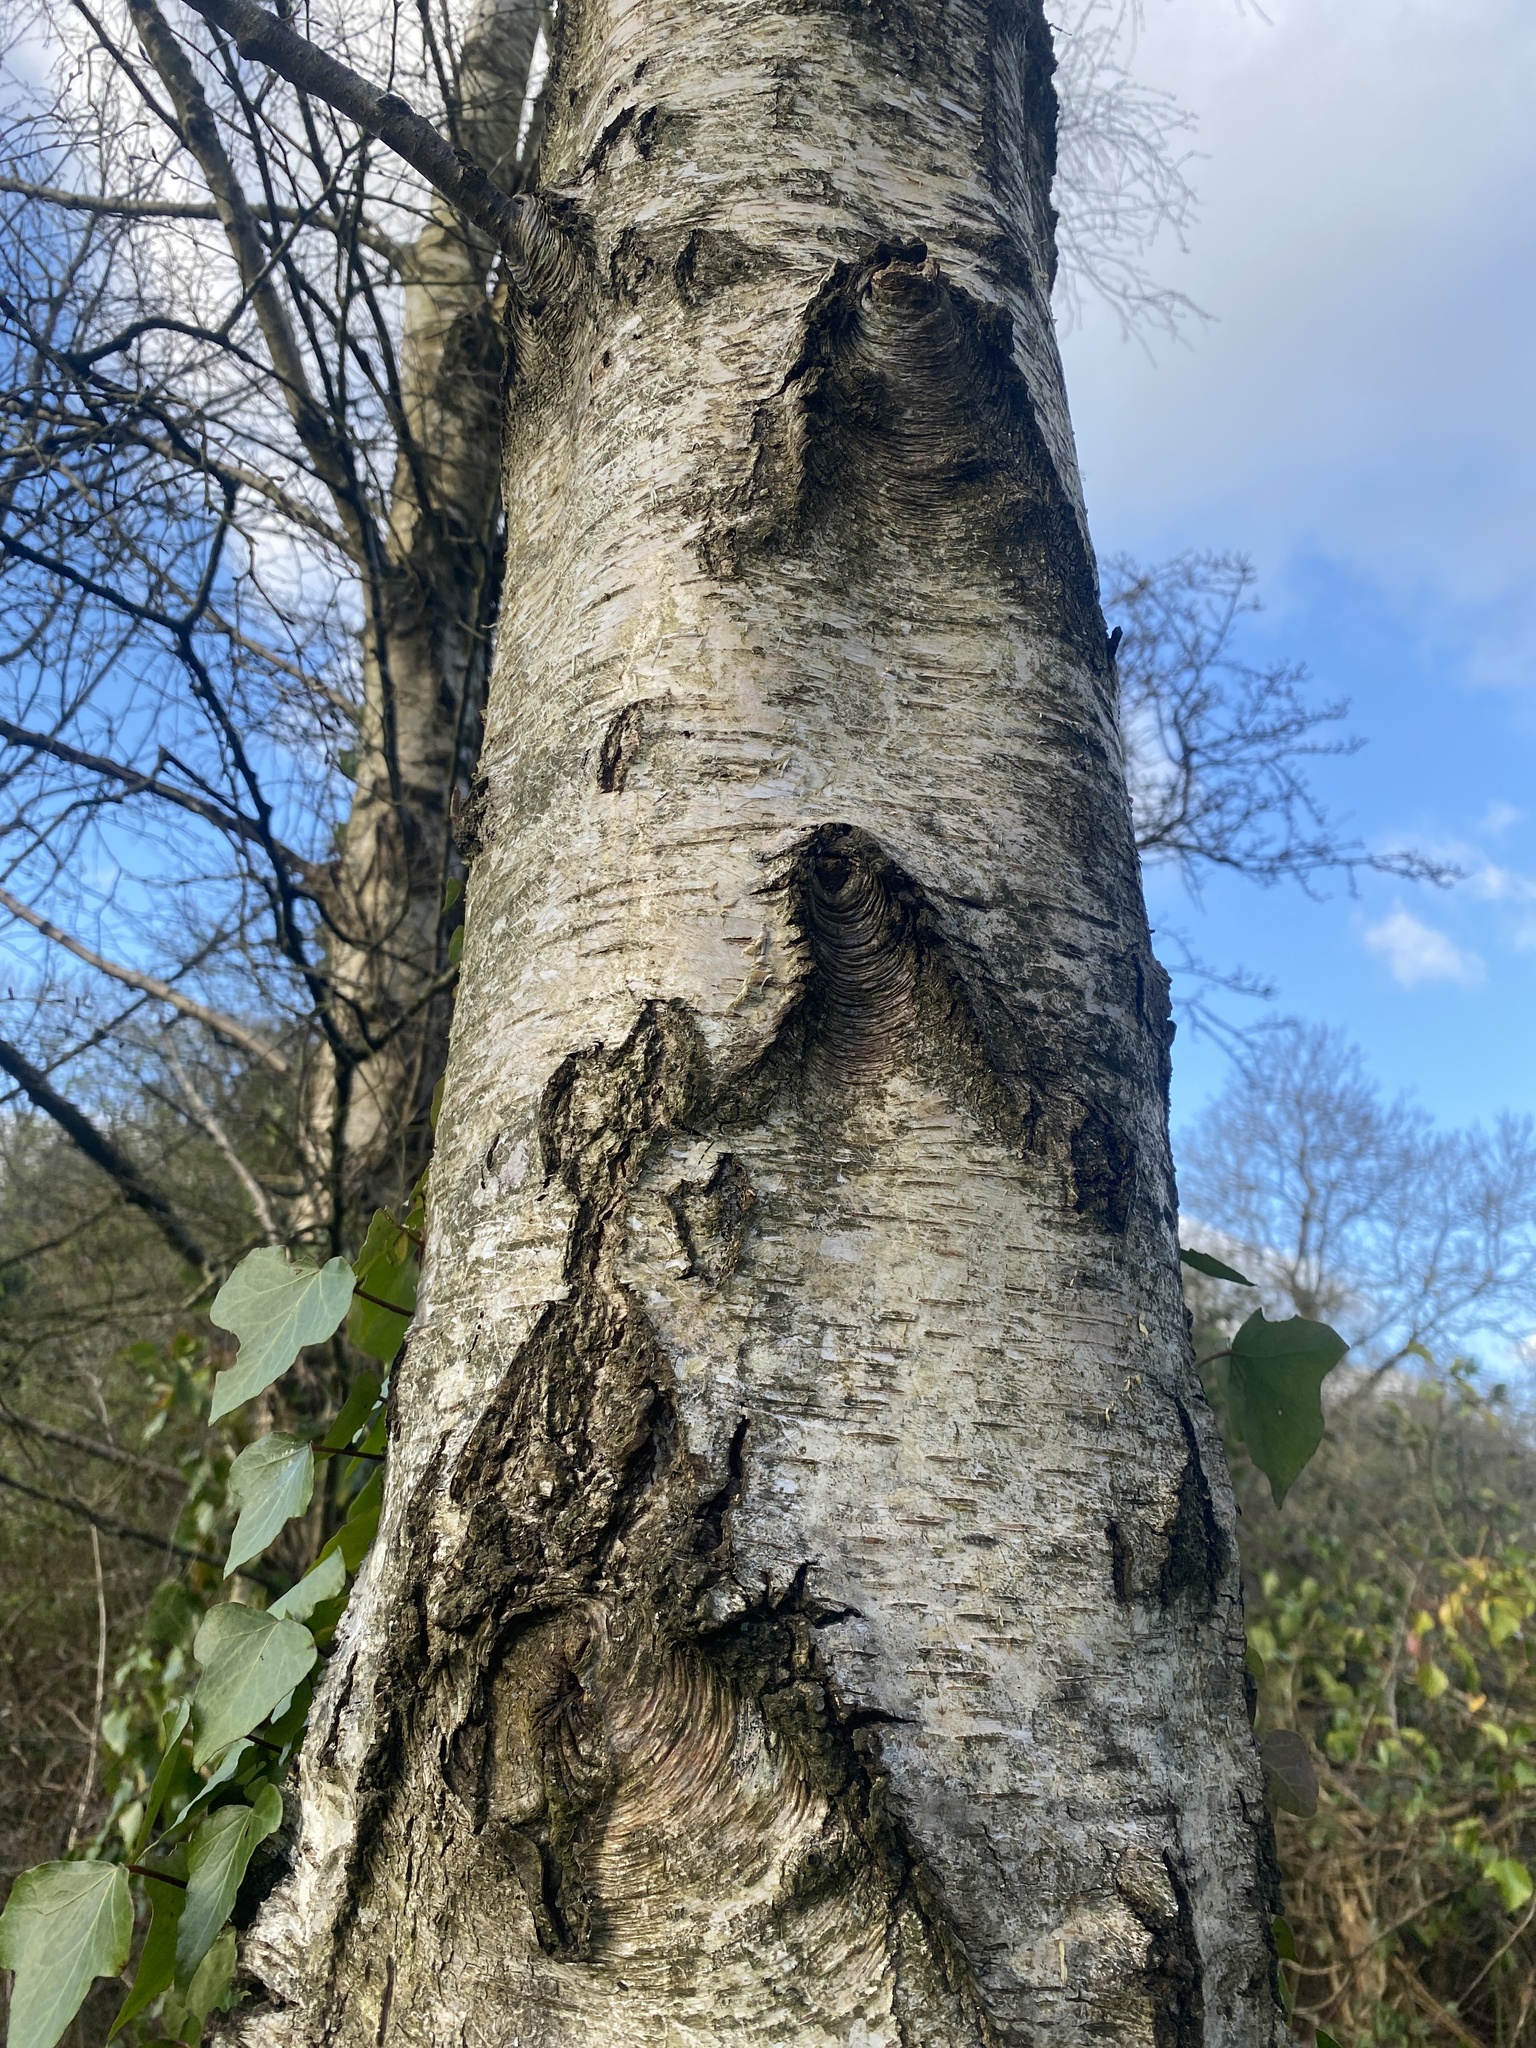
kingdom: Plantae
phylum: Tracheophyta
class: Magnoliopsida
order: Fagales
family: Betulaceae
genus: Betula
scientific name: Betula pendula
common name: Silver birch
